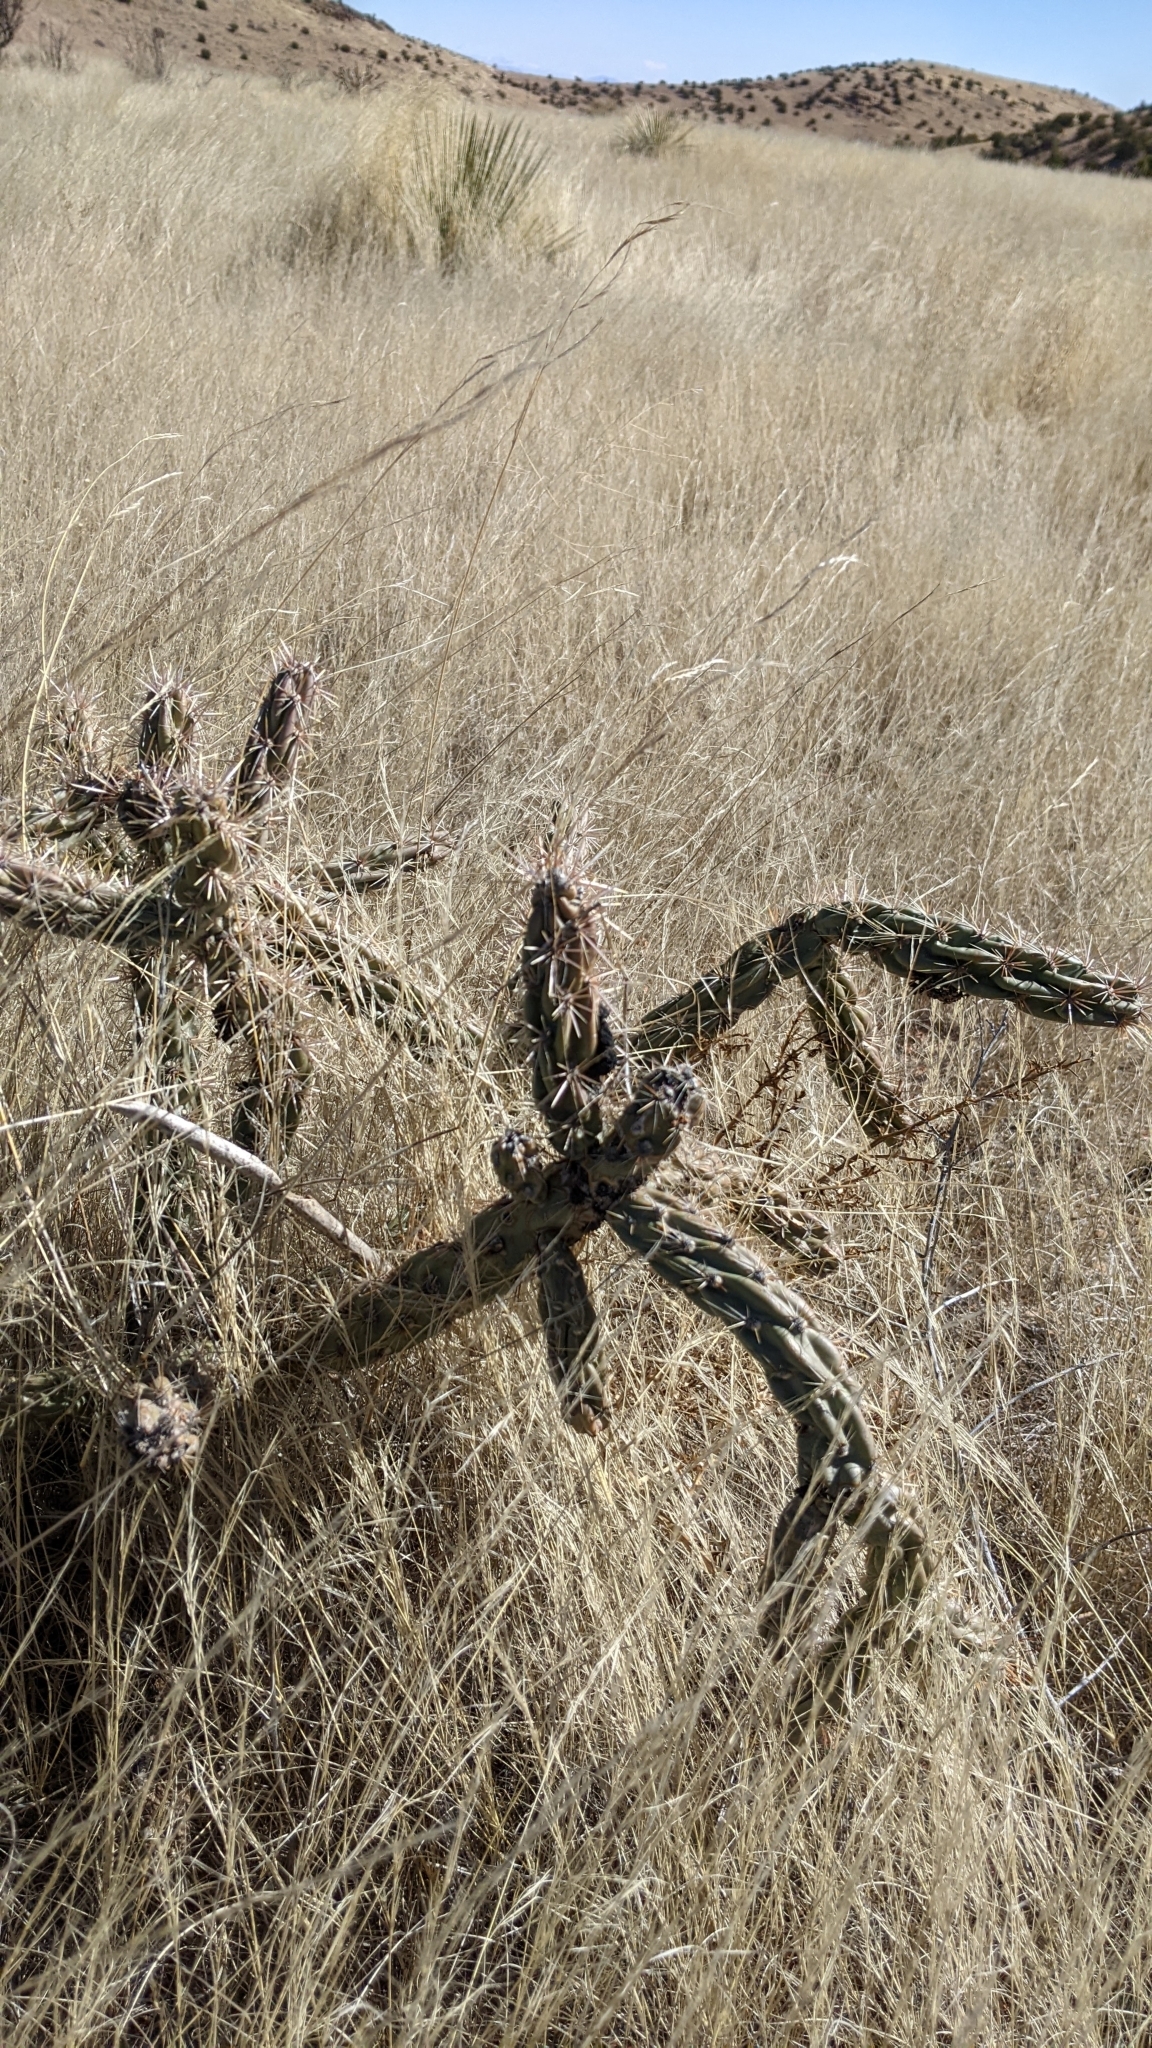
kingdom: Plantae
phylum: Tracheophyta
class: Magnoliopsida
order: Caryophyllales
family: Cactaceae
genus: Cylindropuntia
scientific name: Cylindropuntia imbricata
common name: Candelabrum cactus
